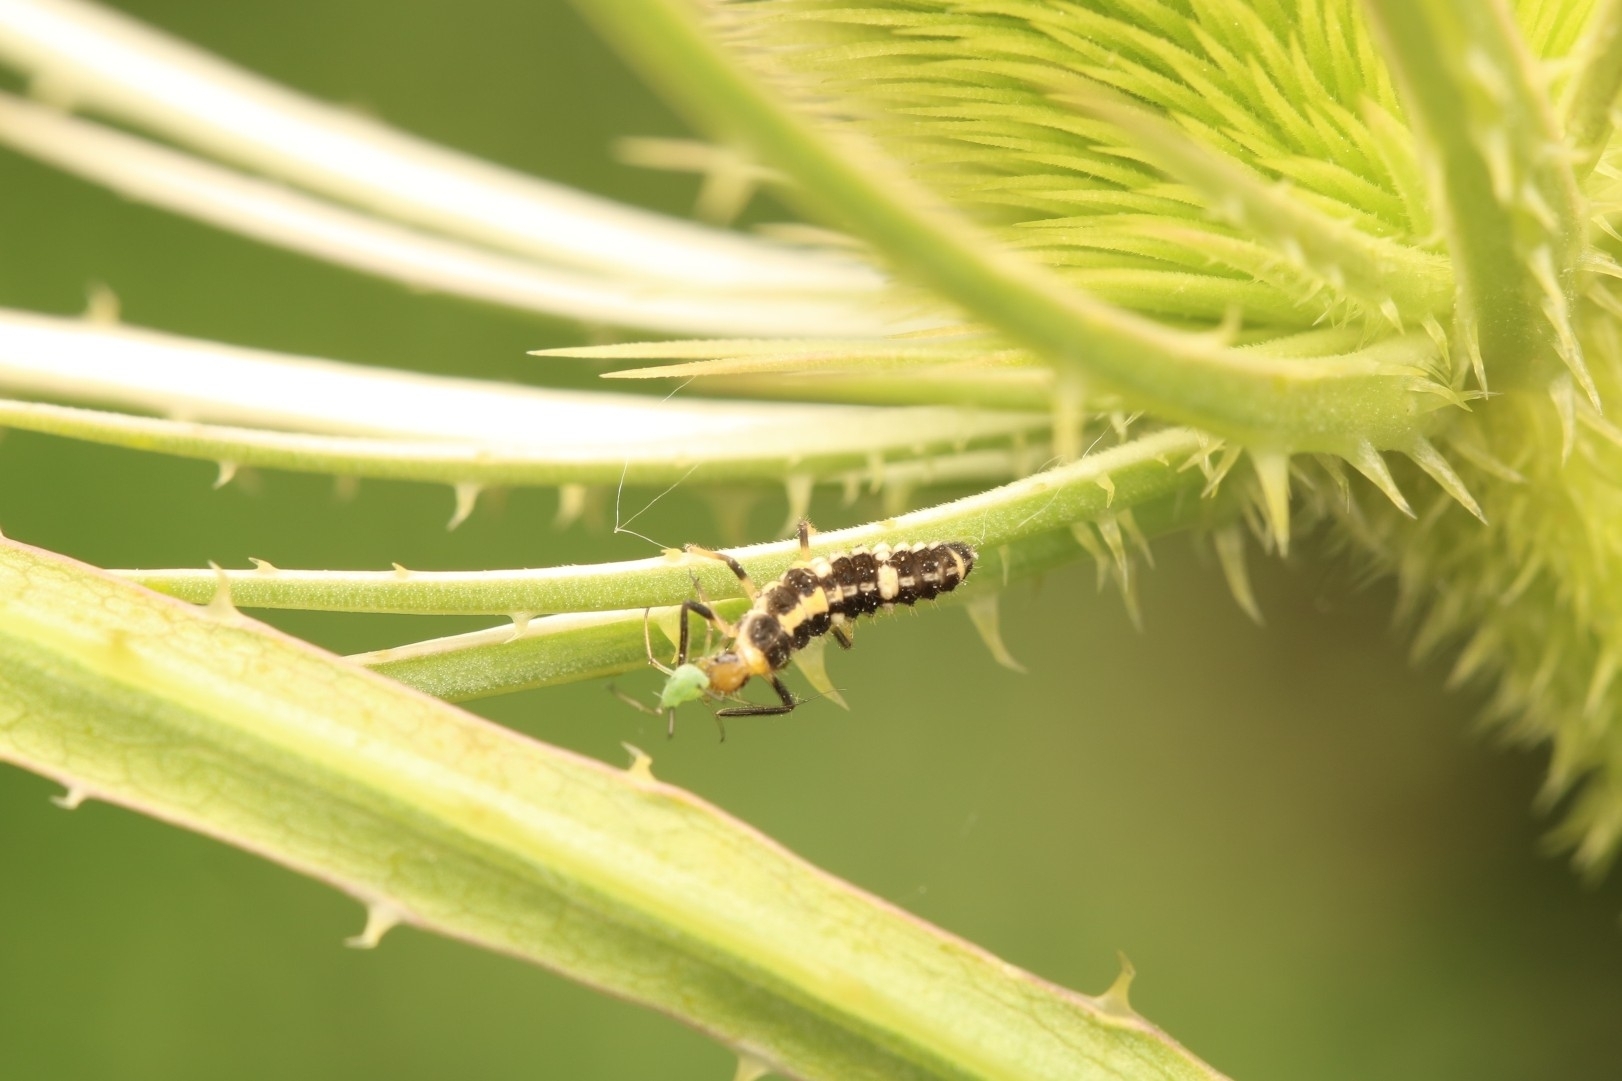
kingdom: Animalia
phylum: Arthropoda
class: Insecta
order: Coleoptera
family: Coccinellidae
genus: Propylaea
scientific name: Propylaea quatuordecimpunctata
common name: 14-spotted ladybird beetle
